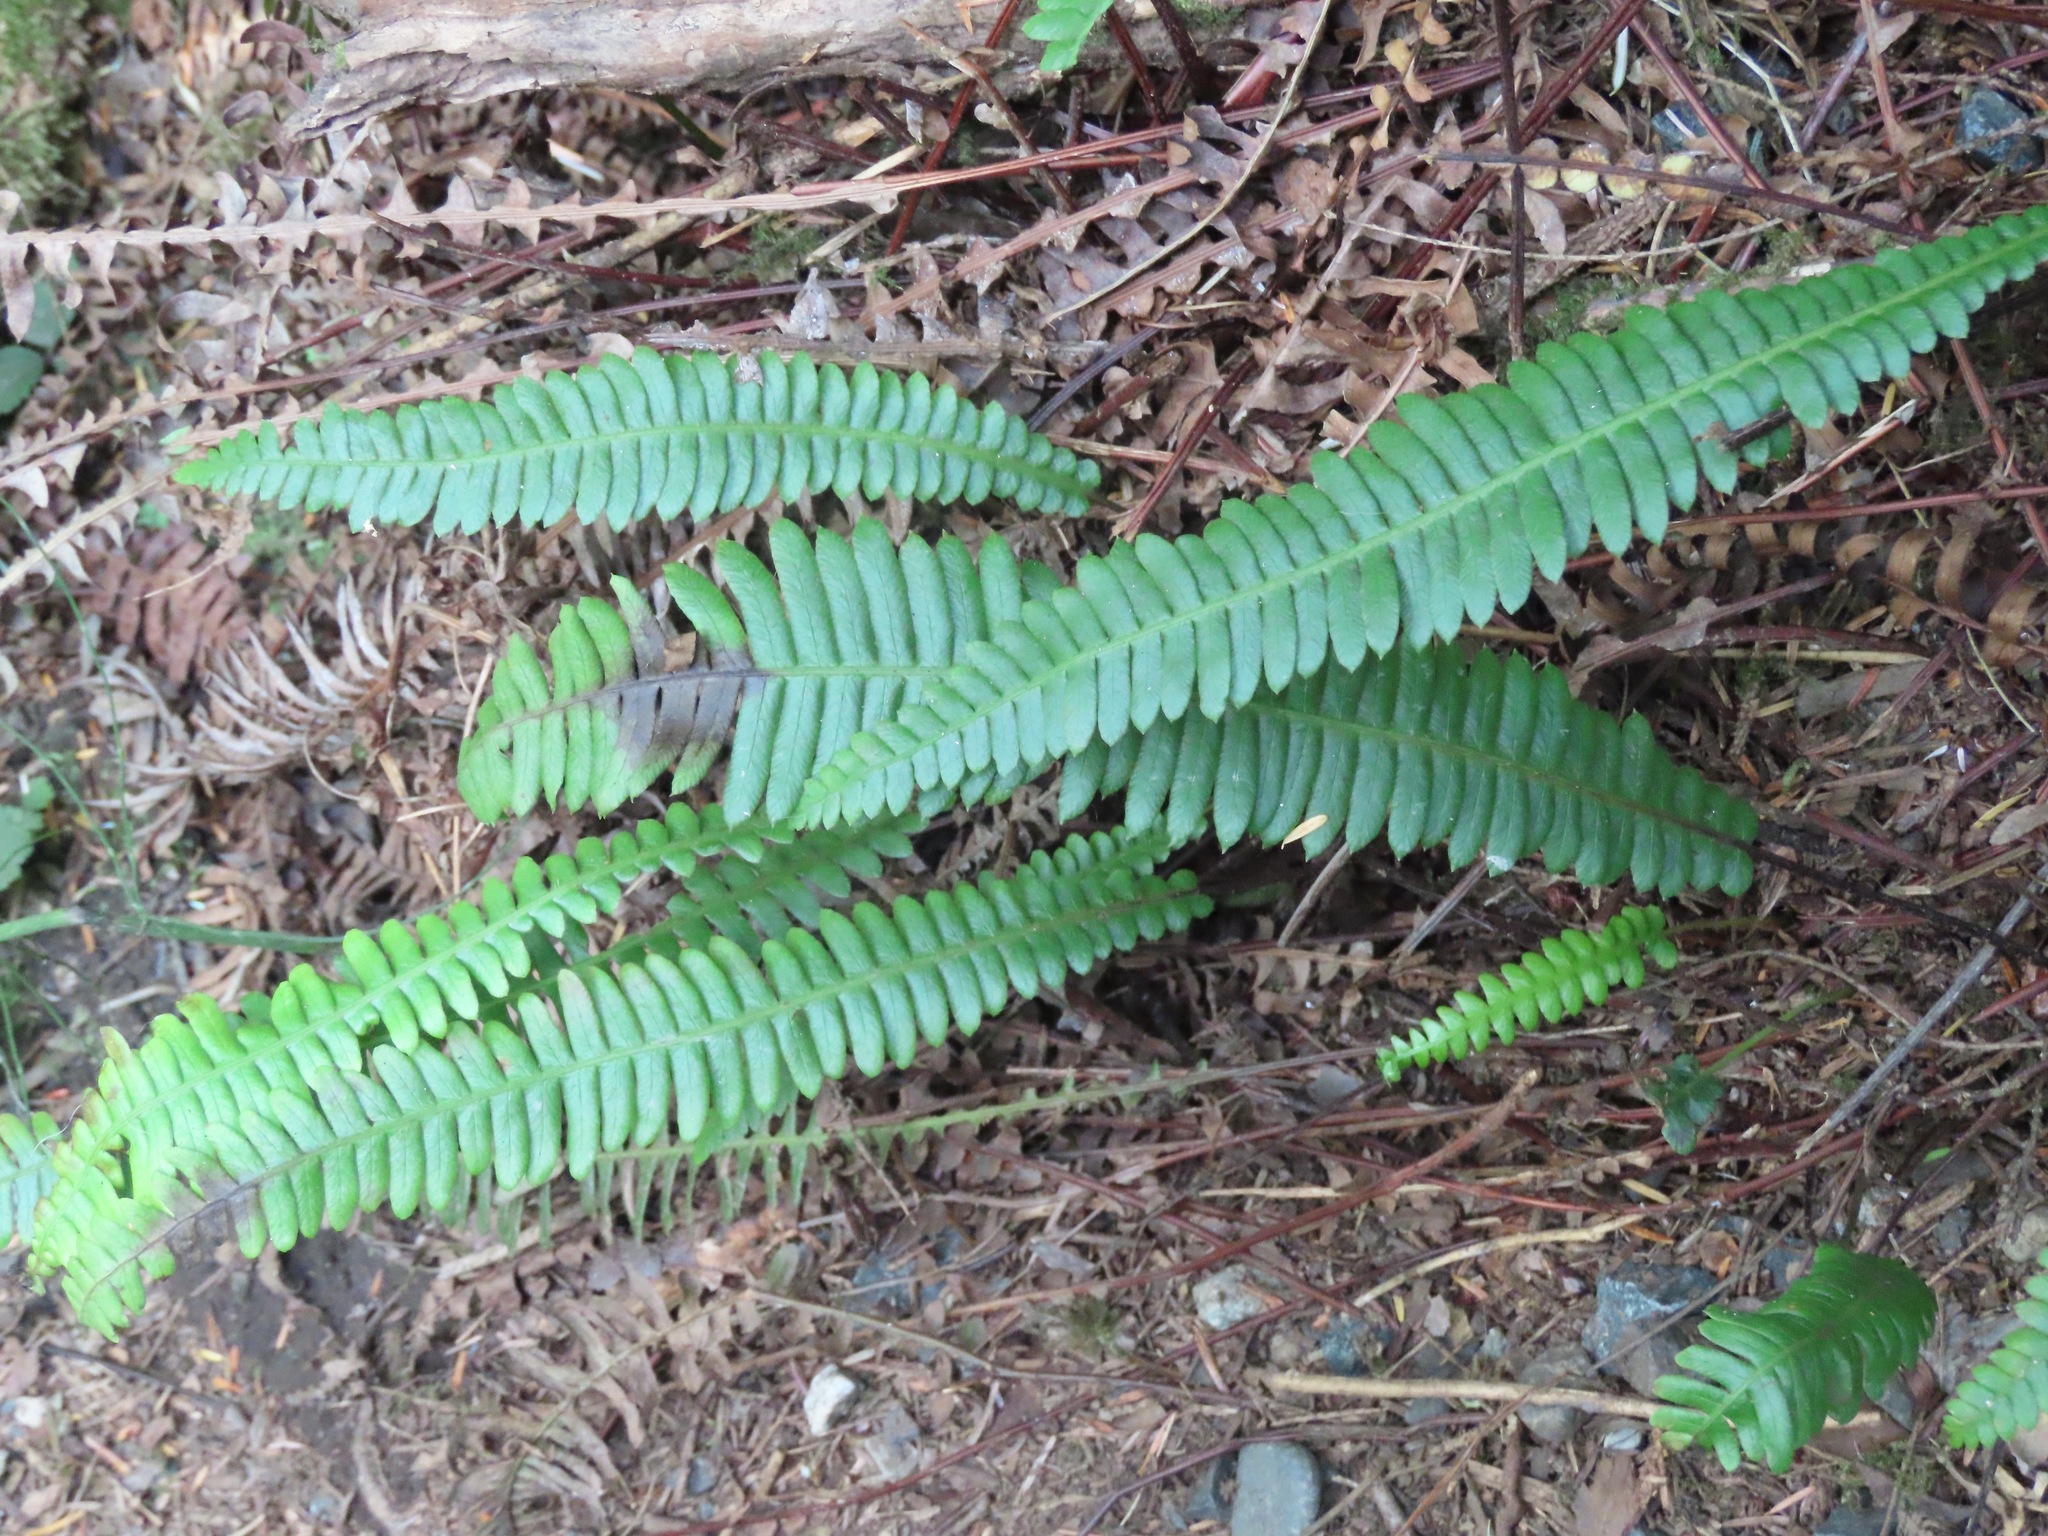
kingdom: Plantae
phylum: Tracheophyta
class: Polypodiopsida
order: Polypodiales
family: Blechnaceae
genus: Struthiopteris
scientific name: Struthiopteris spicant
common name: Deer fern
